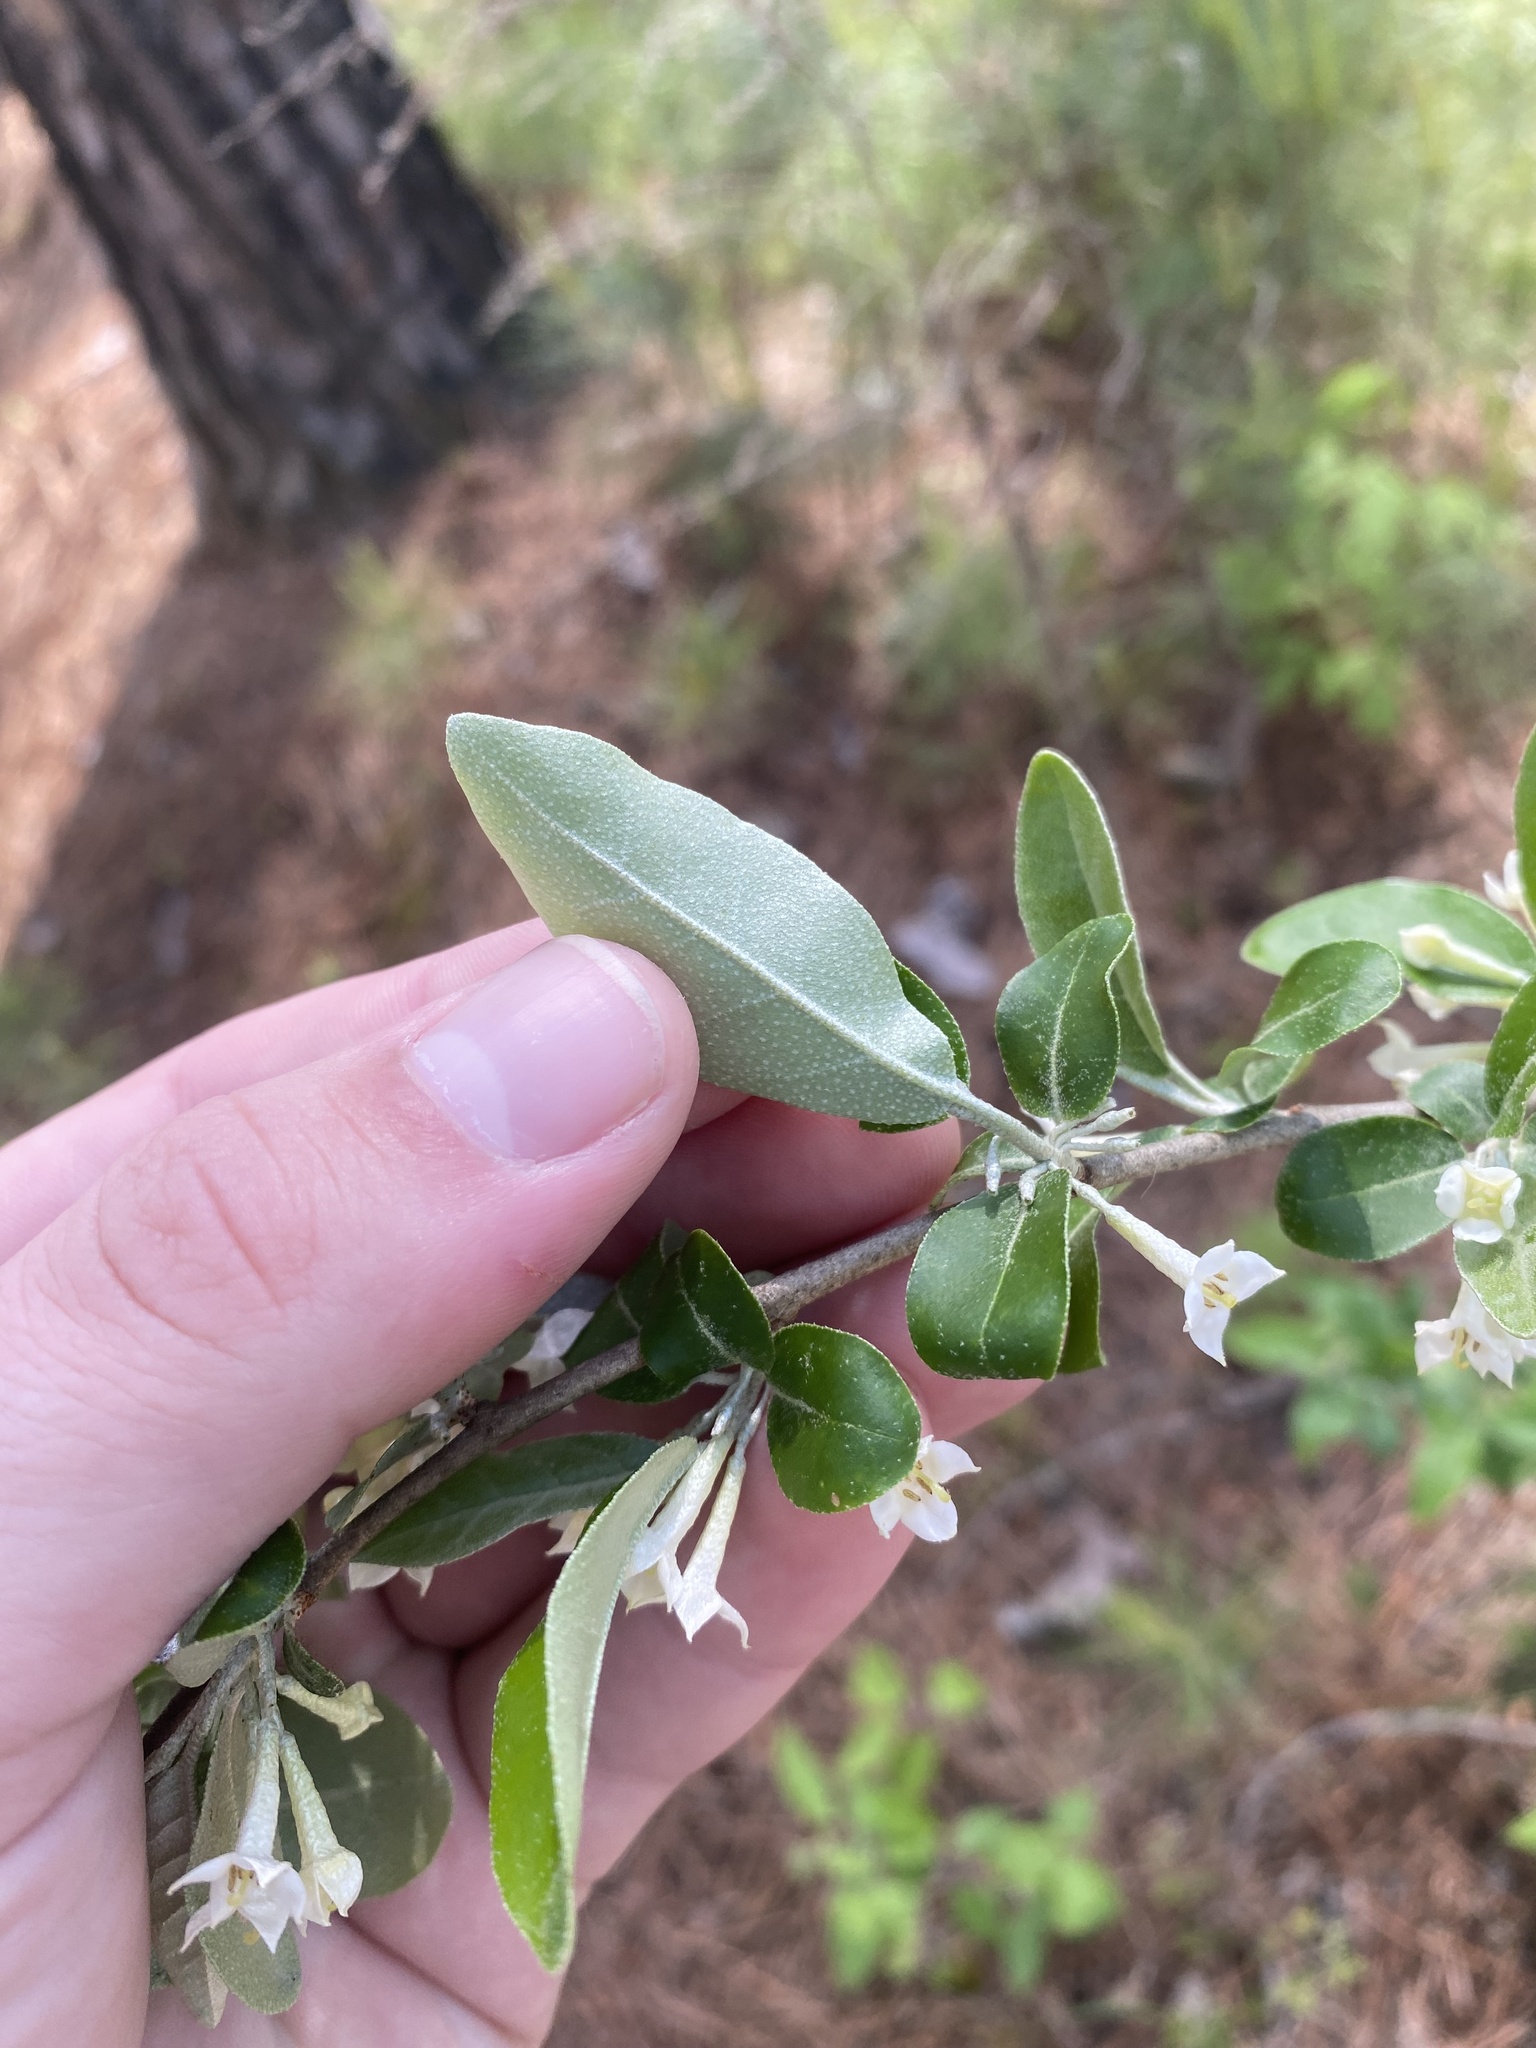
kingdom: Plantae
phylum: Tracheophyta
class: Magnoliopsida
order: Rosales
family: Elaeagnaceae
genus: Elaeagnus
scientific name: Elaeagnus umbellata
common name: Autumn olive
